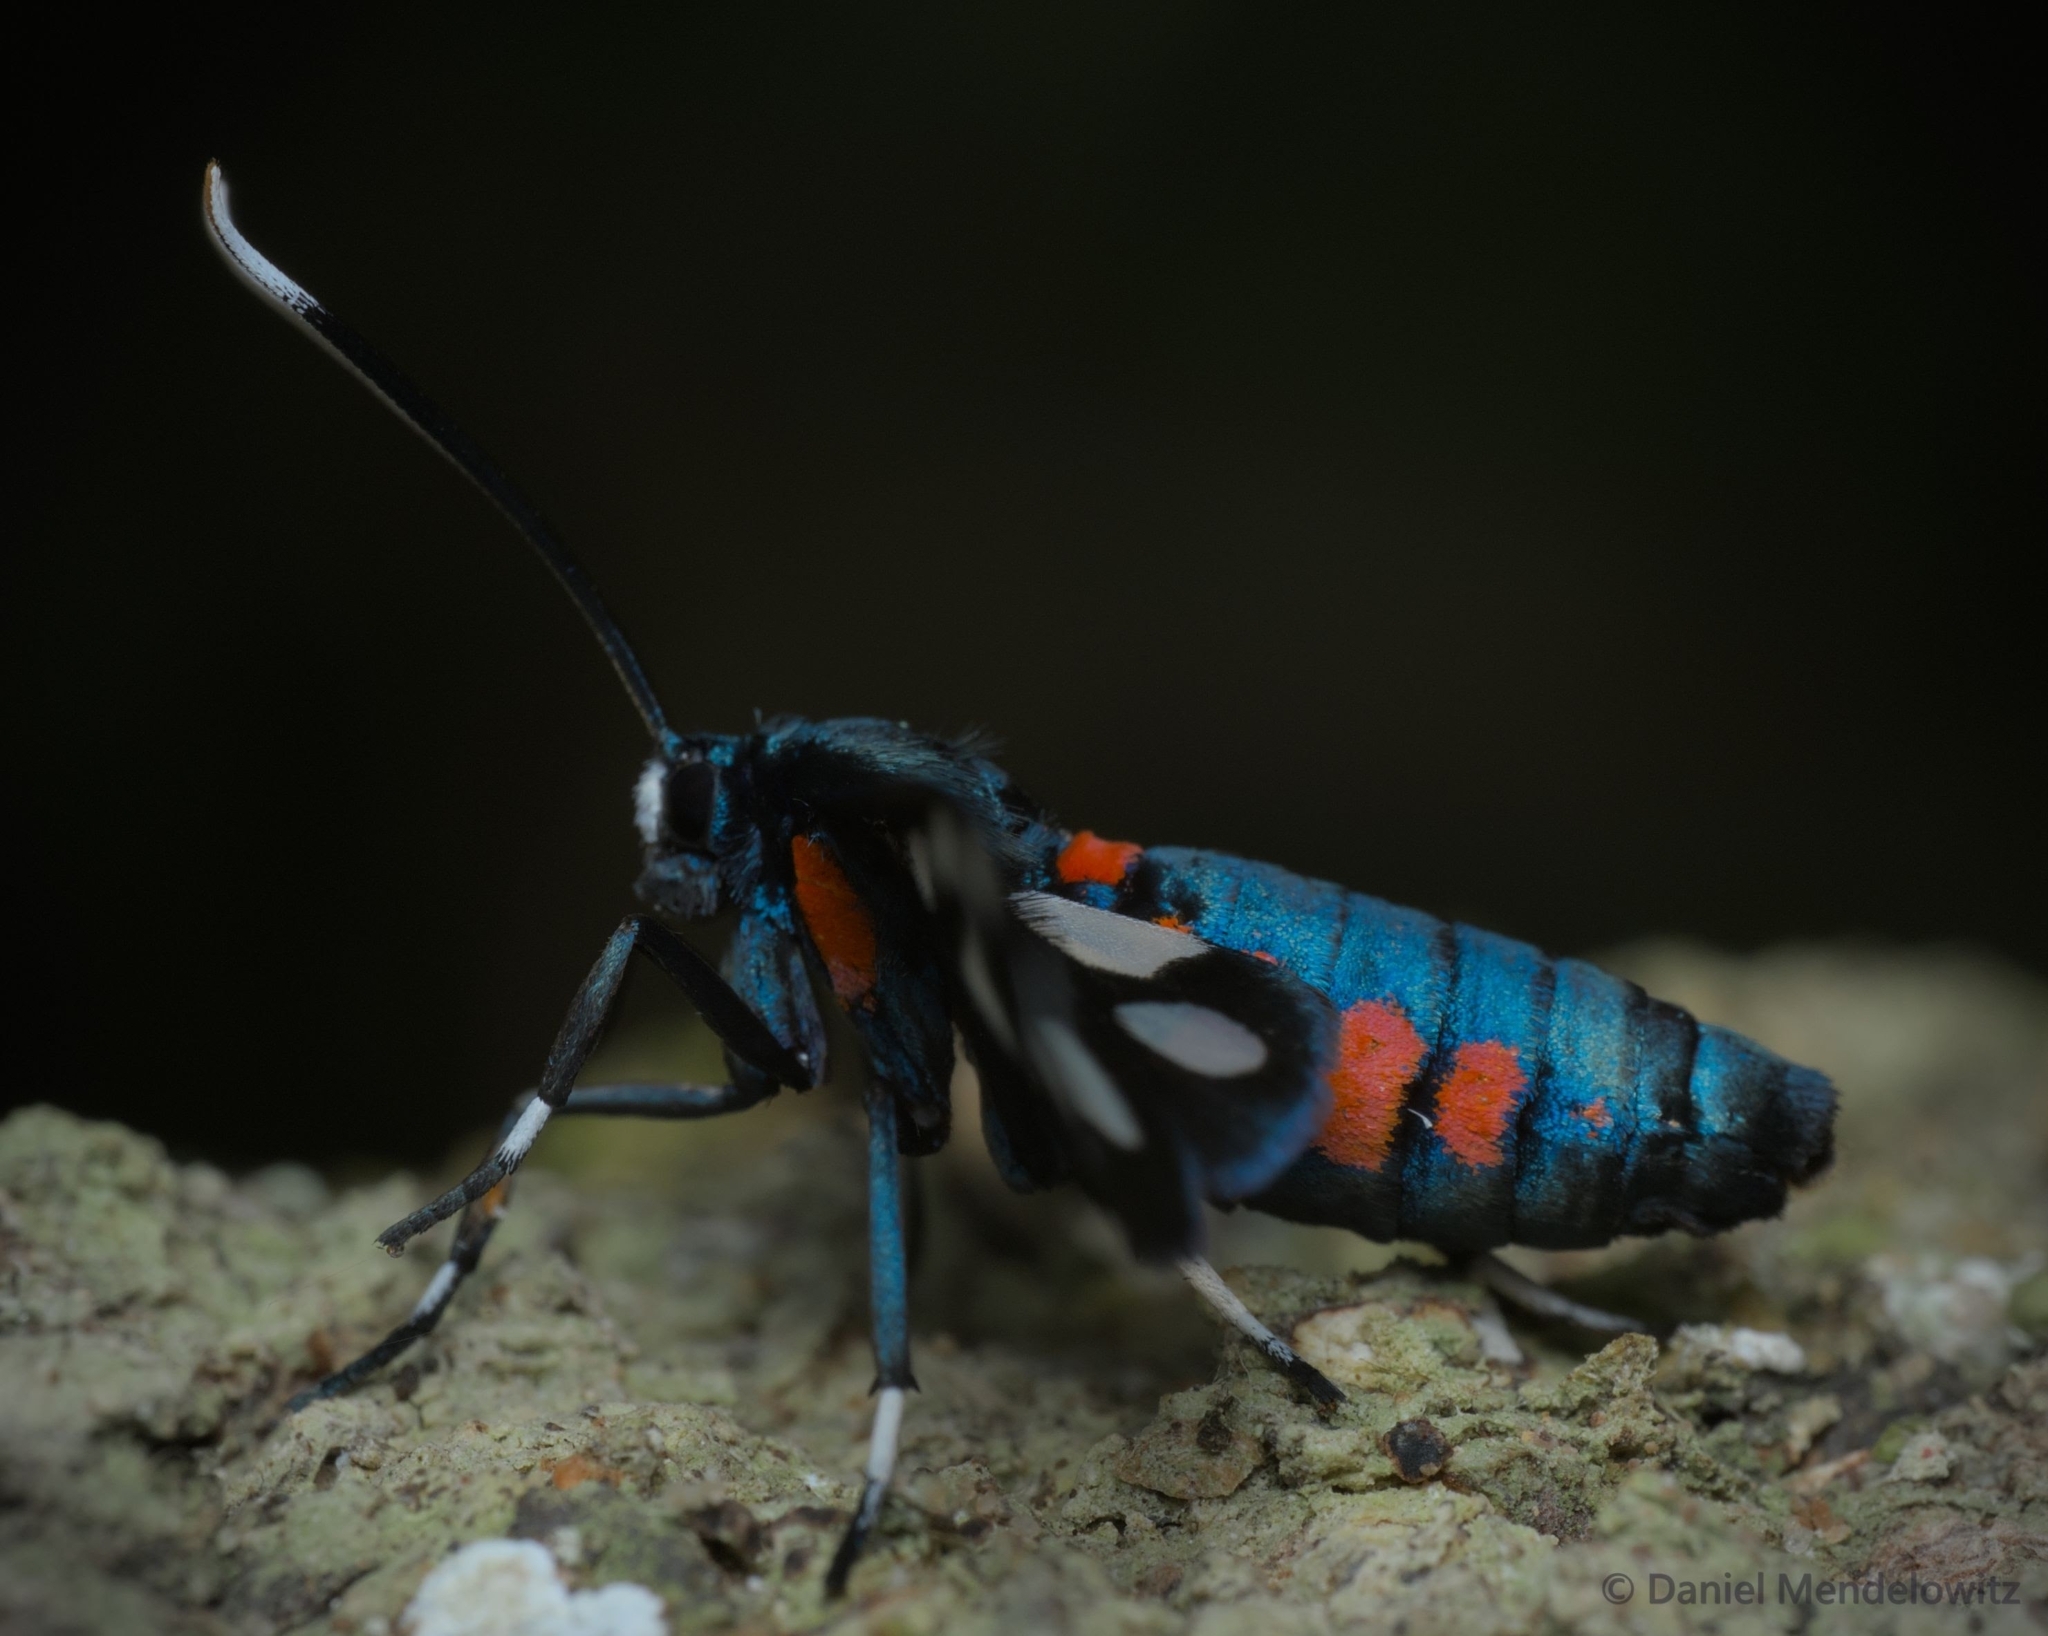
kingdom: Animalia
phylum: Arthropoda
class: Insecta
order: Lepidoptera
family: Erebidae
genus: Amata
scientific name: Amata kuhlweini
